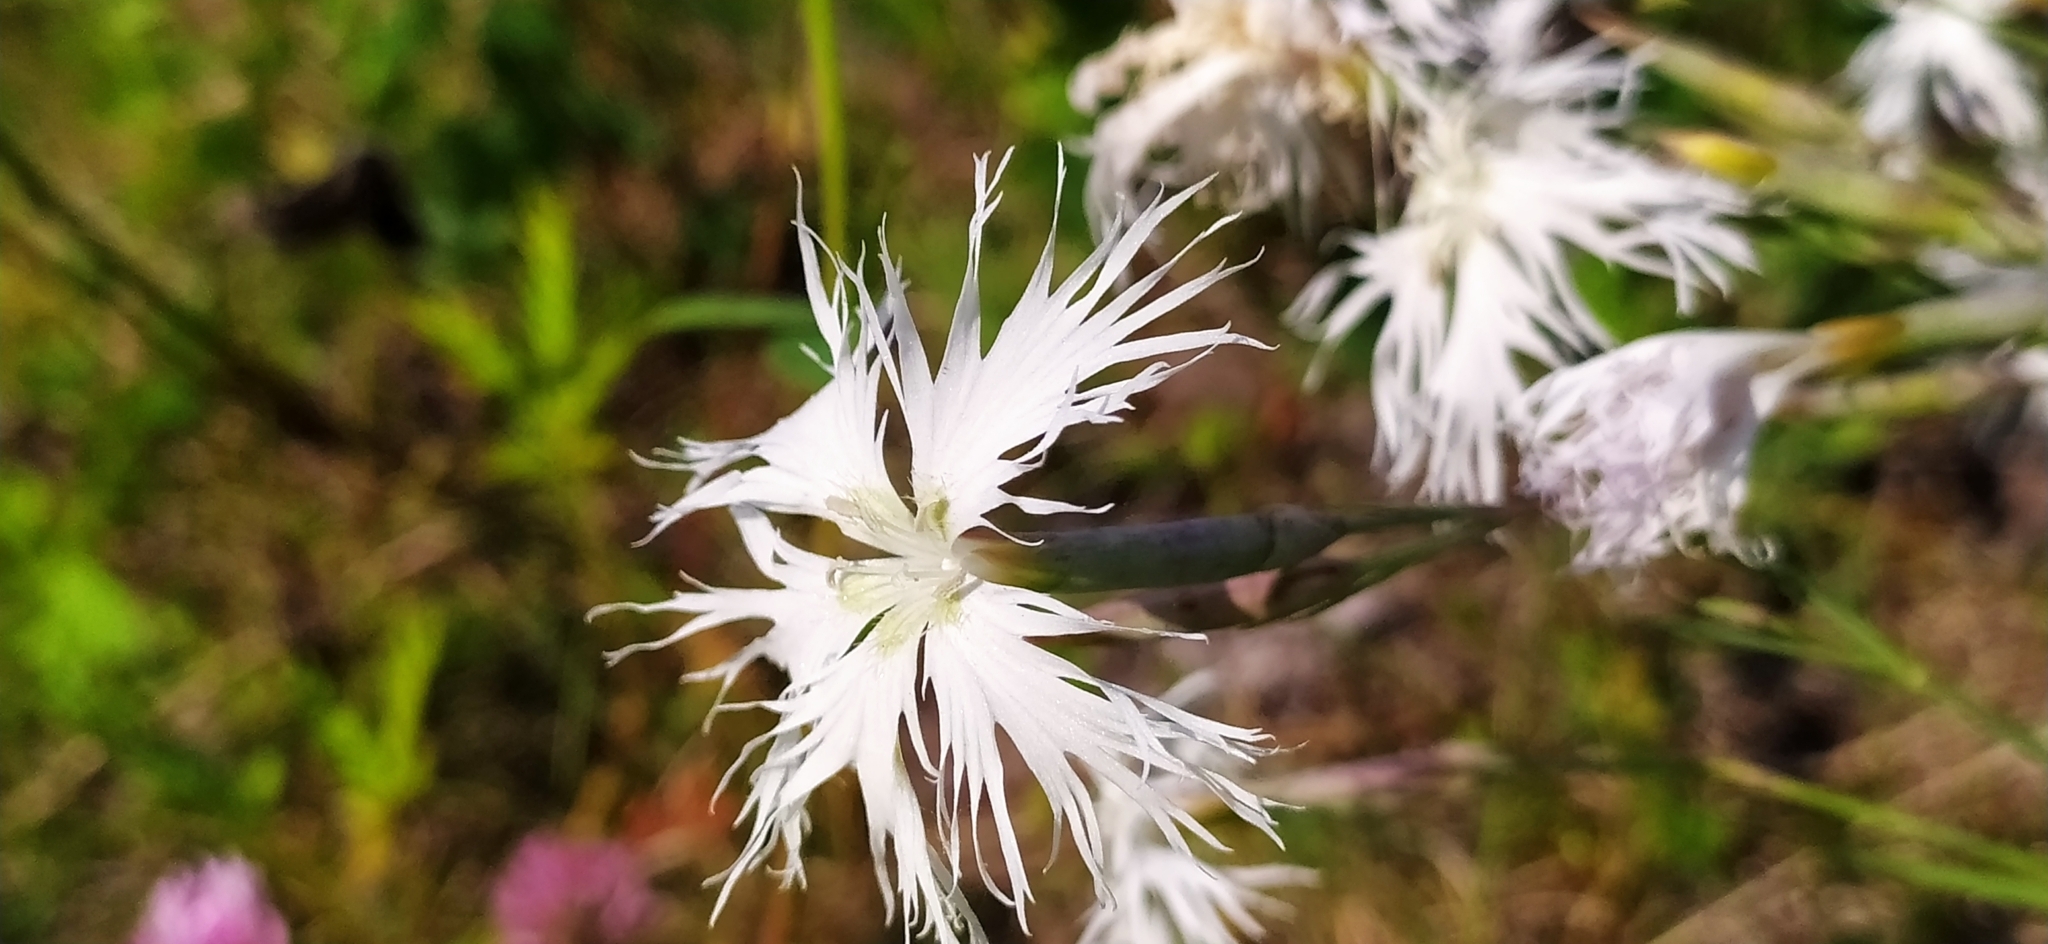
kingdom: Plantae
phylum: Tracheophyta
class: Magnoliopsida
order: Caryophyllales
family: Caryophyllaceae
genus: Dianthus
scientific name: Dianthus acicularis
